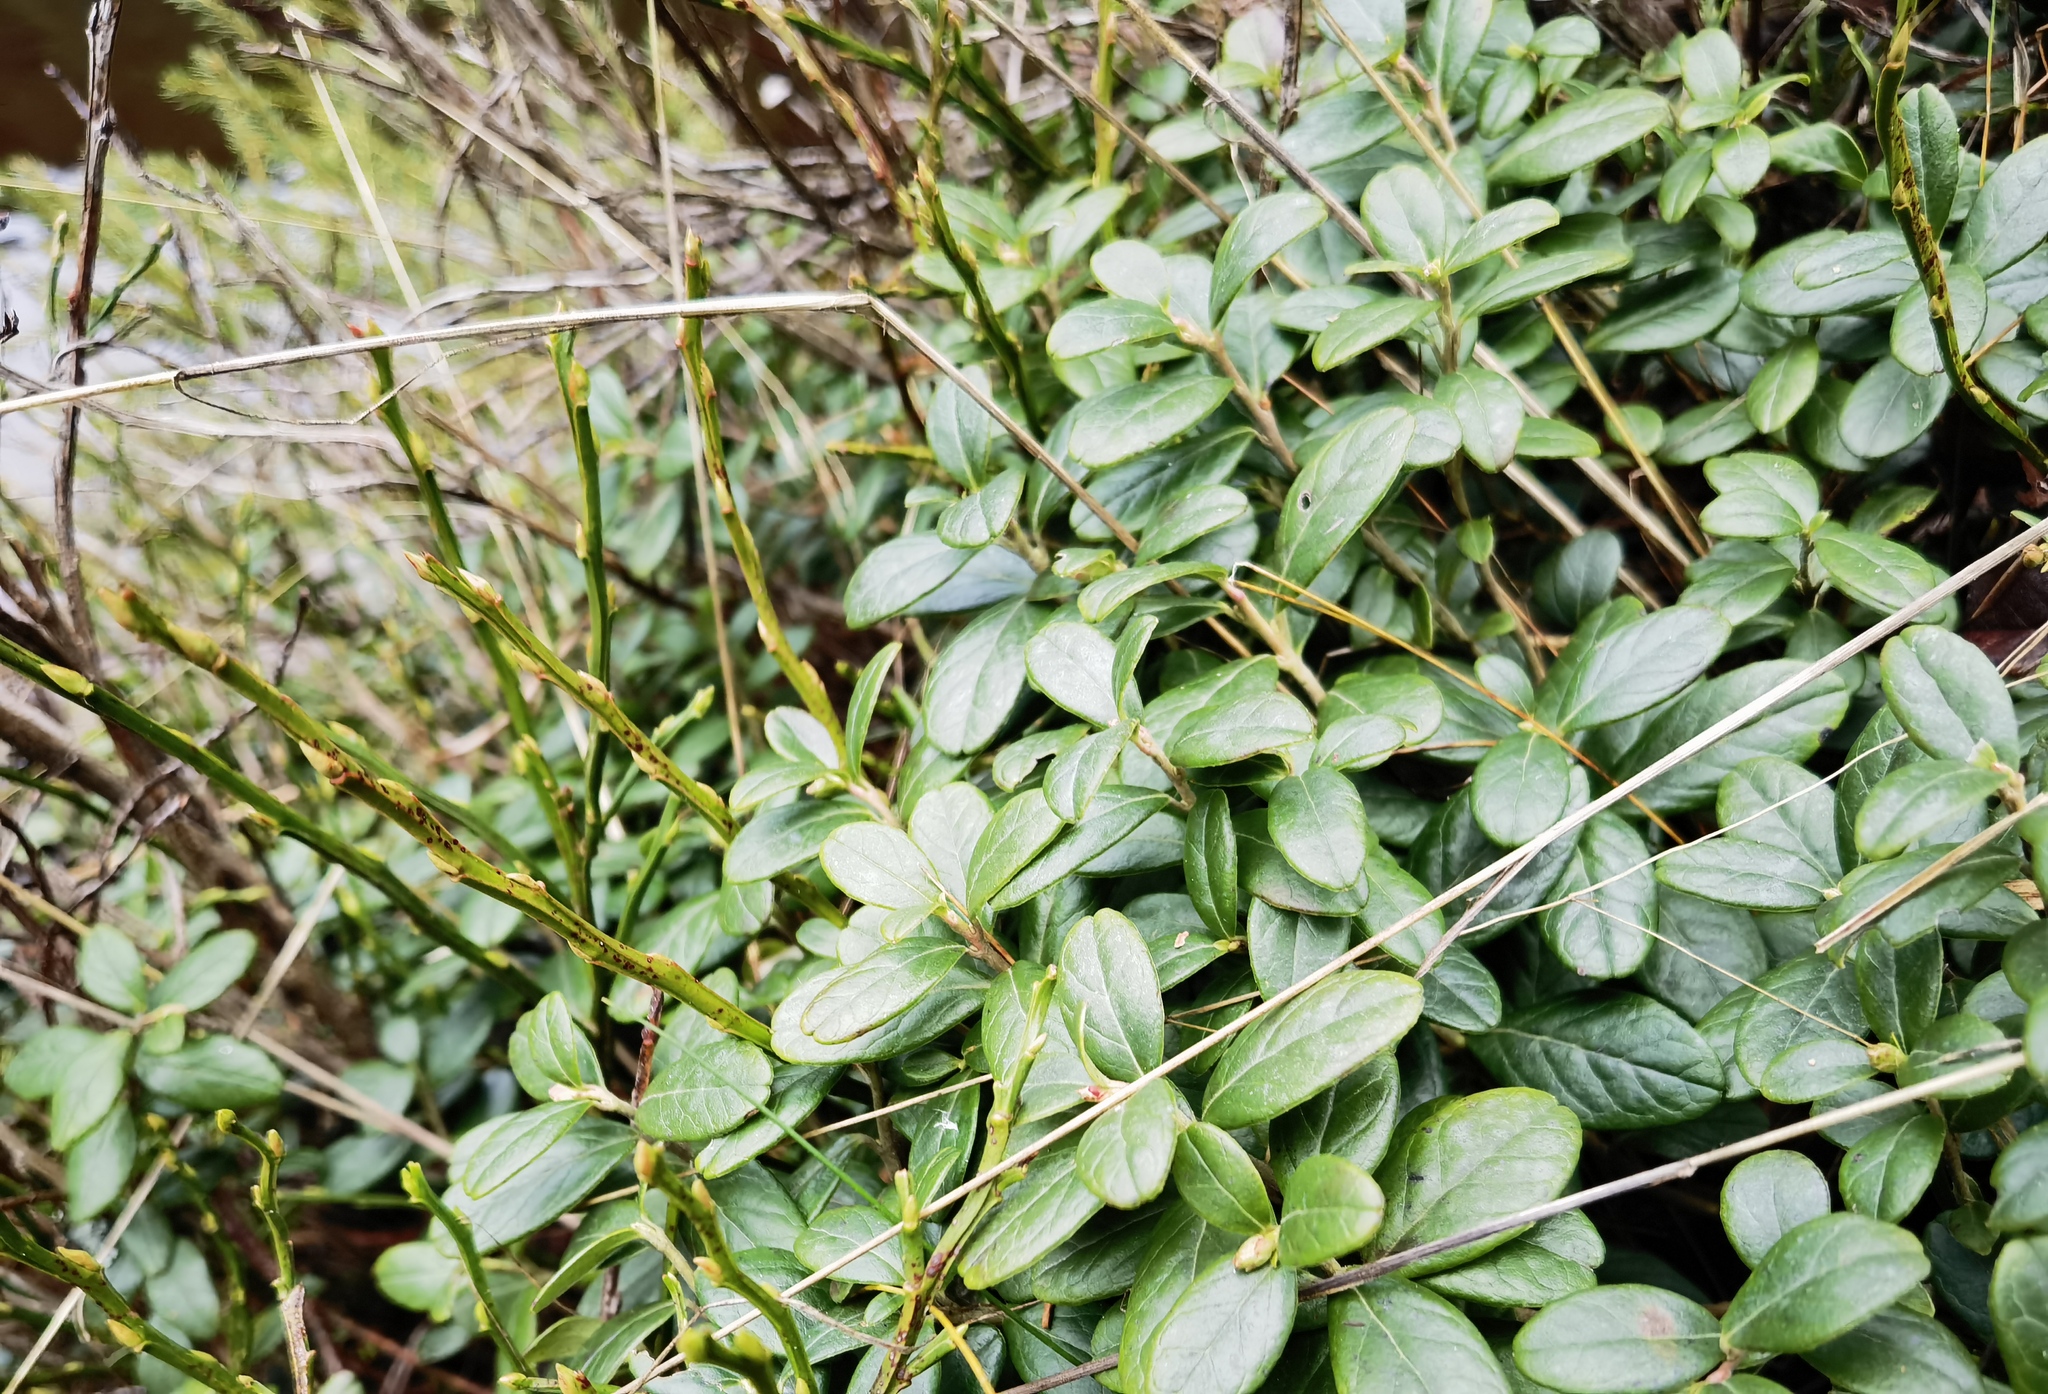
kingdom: Plantae
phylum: Tracheophyta
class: Magnoliopsida
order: Ericales
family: Ericaceae
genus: Vaccinium
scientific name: Vaccinium vitis-idaea
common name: Cowberry
